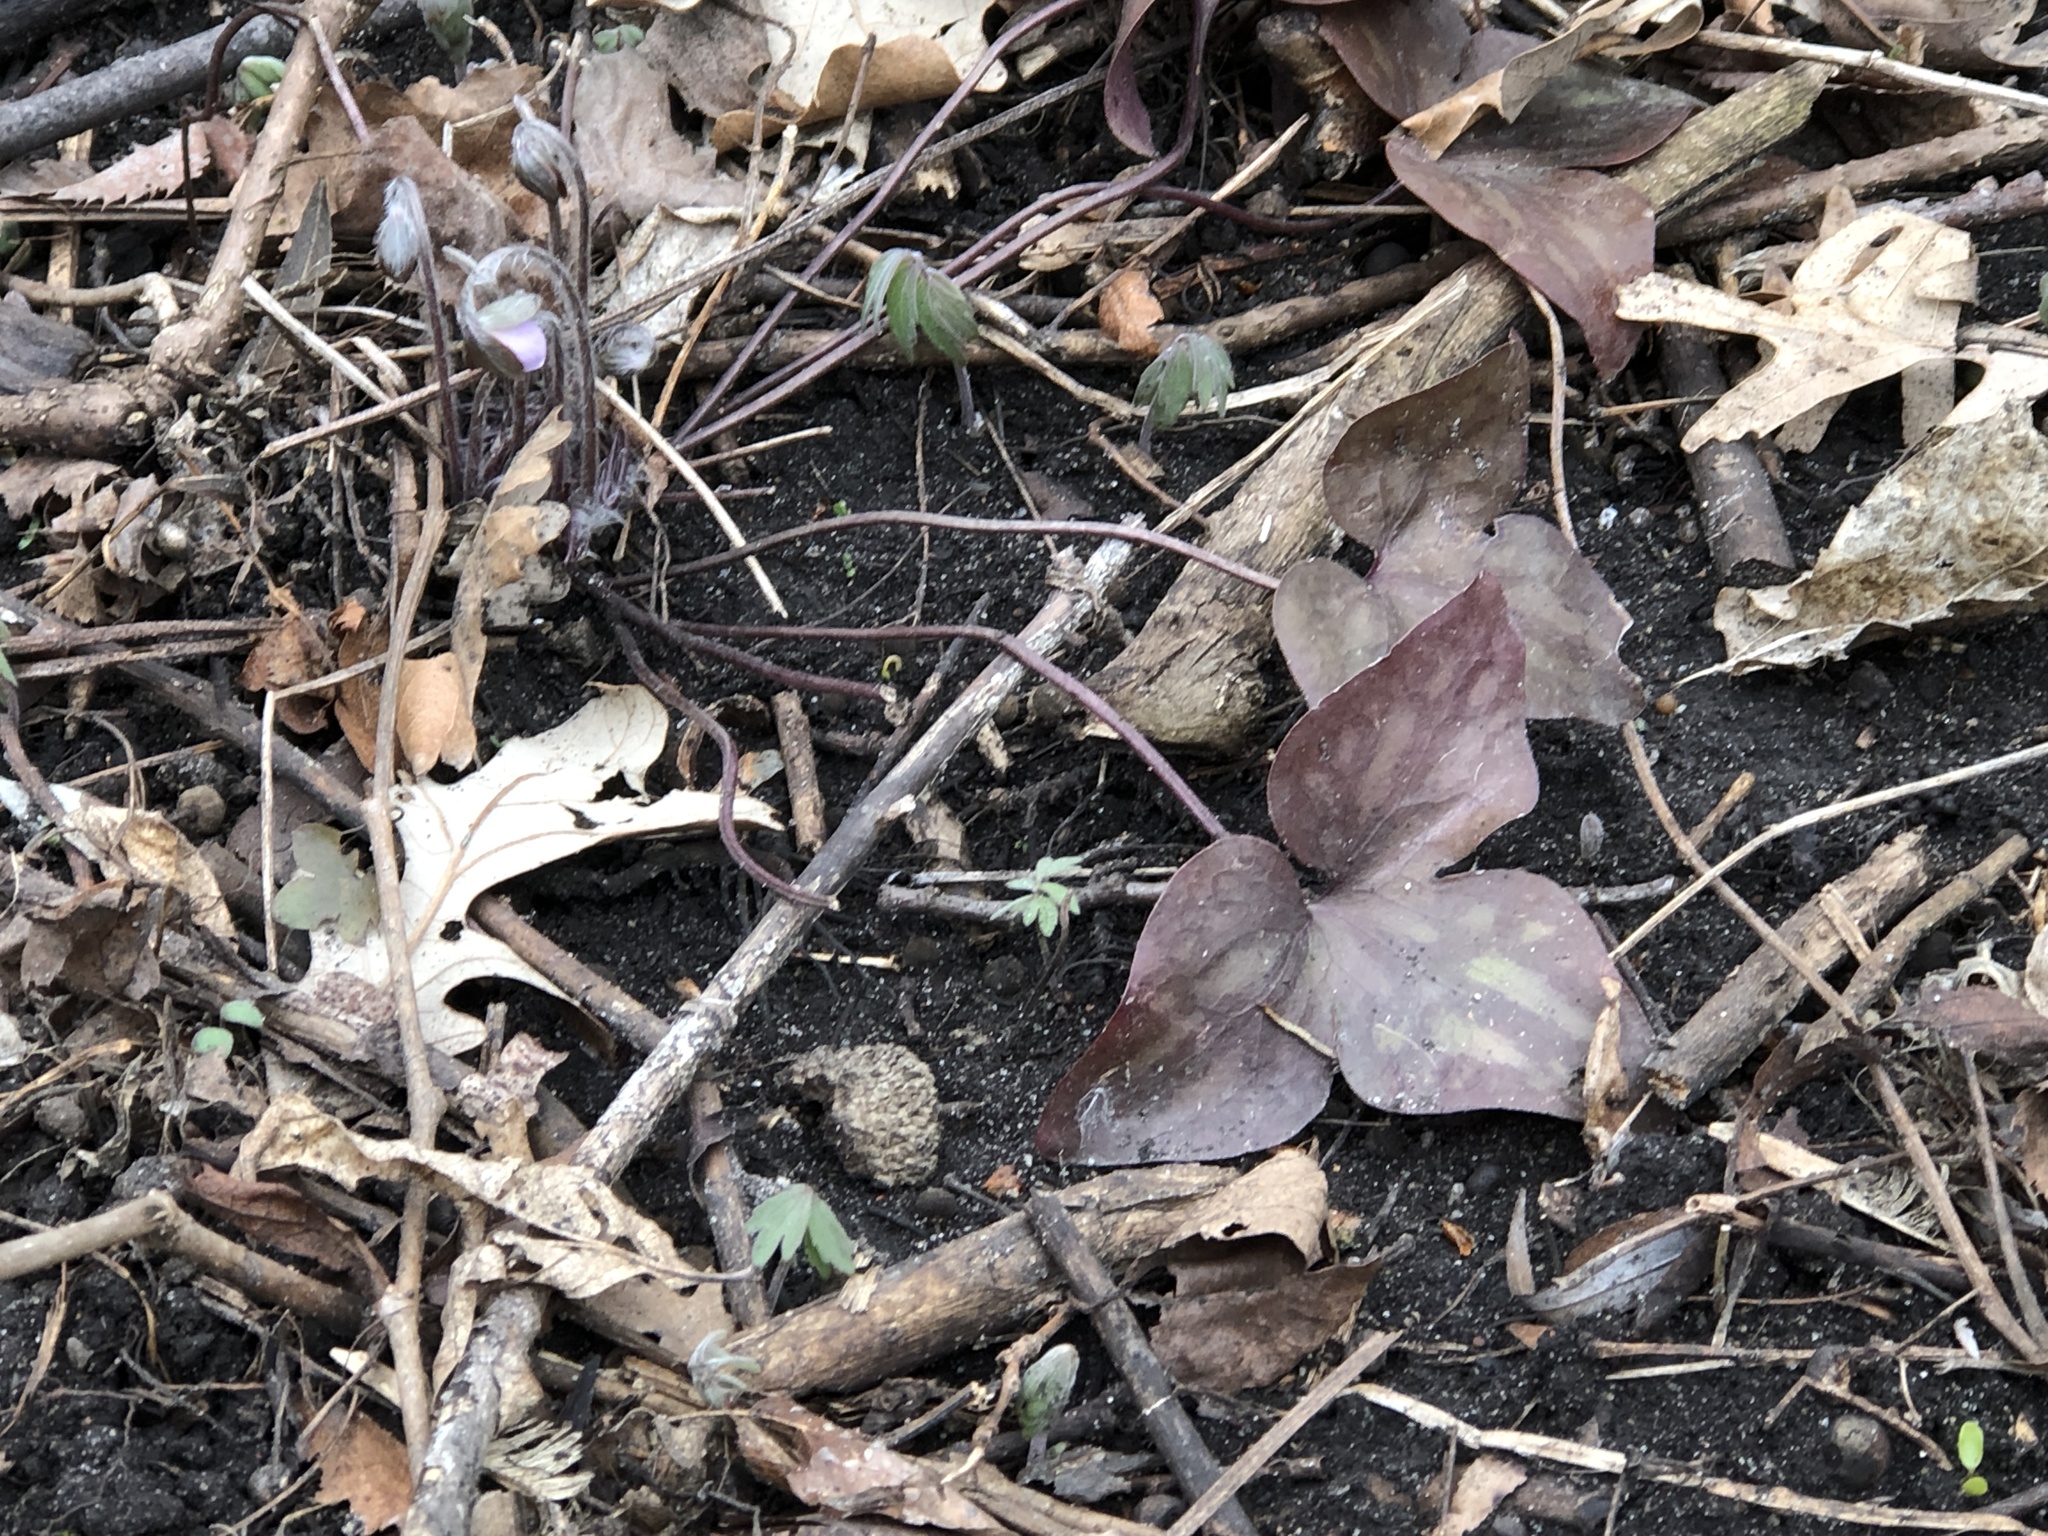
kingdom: Plantae
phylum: Tracheophyta
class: Magnoliopsida
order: Ranunculales
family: Ranunculaceae
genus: Hepatica
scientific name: Hepatica acutiloba
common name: Sharp-lobed hepatica
